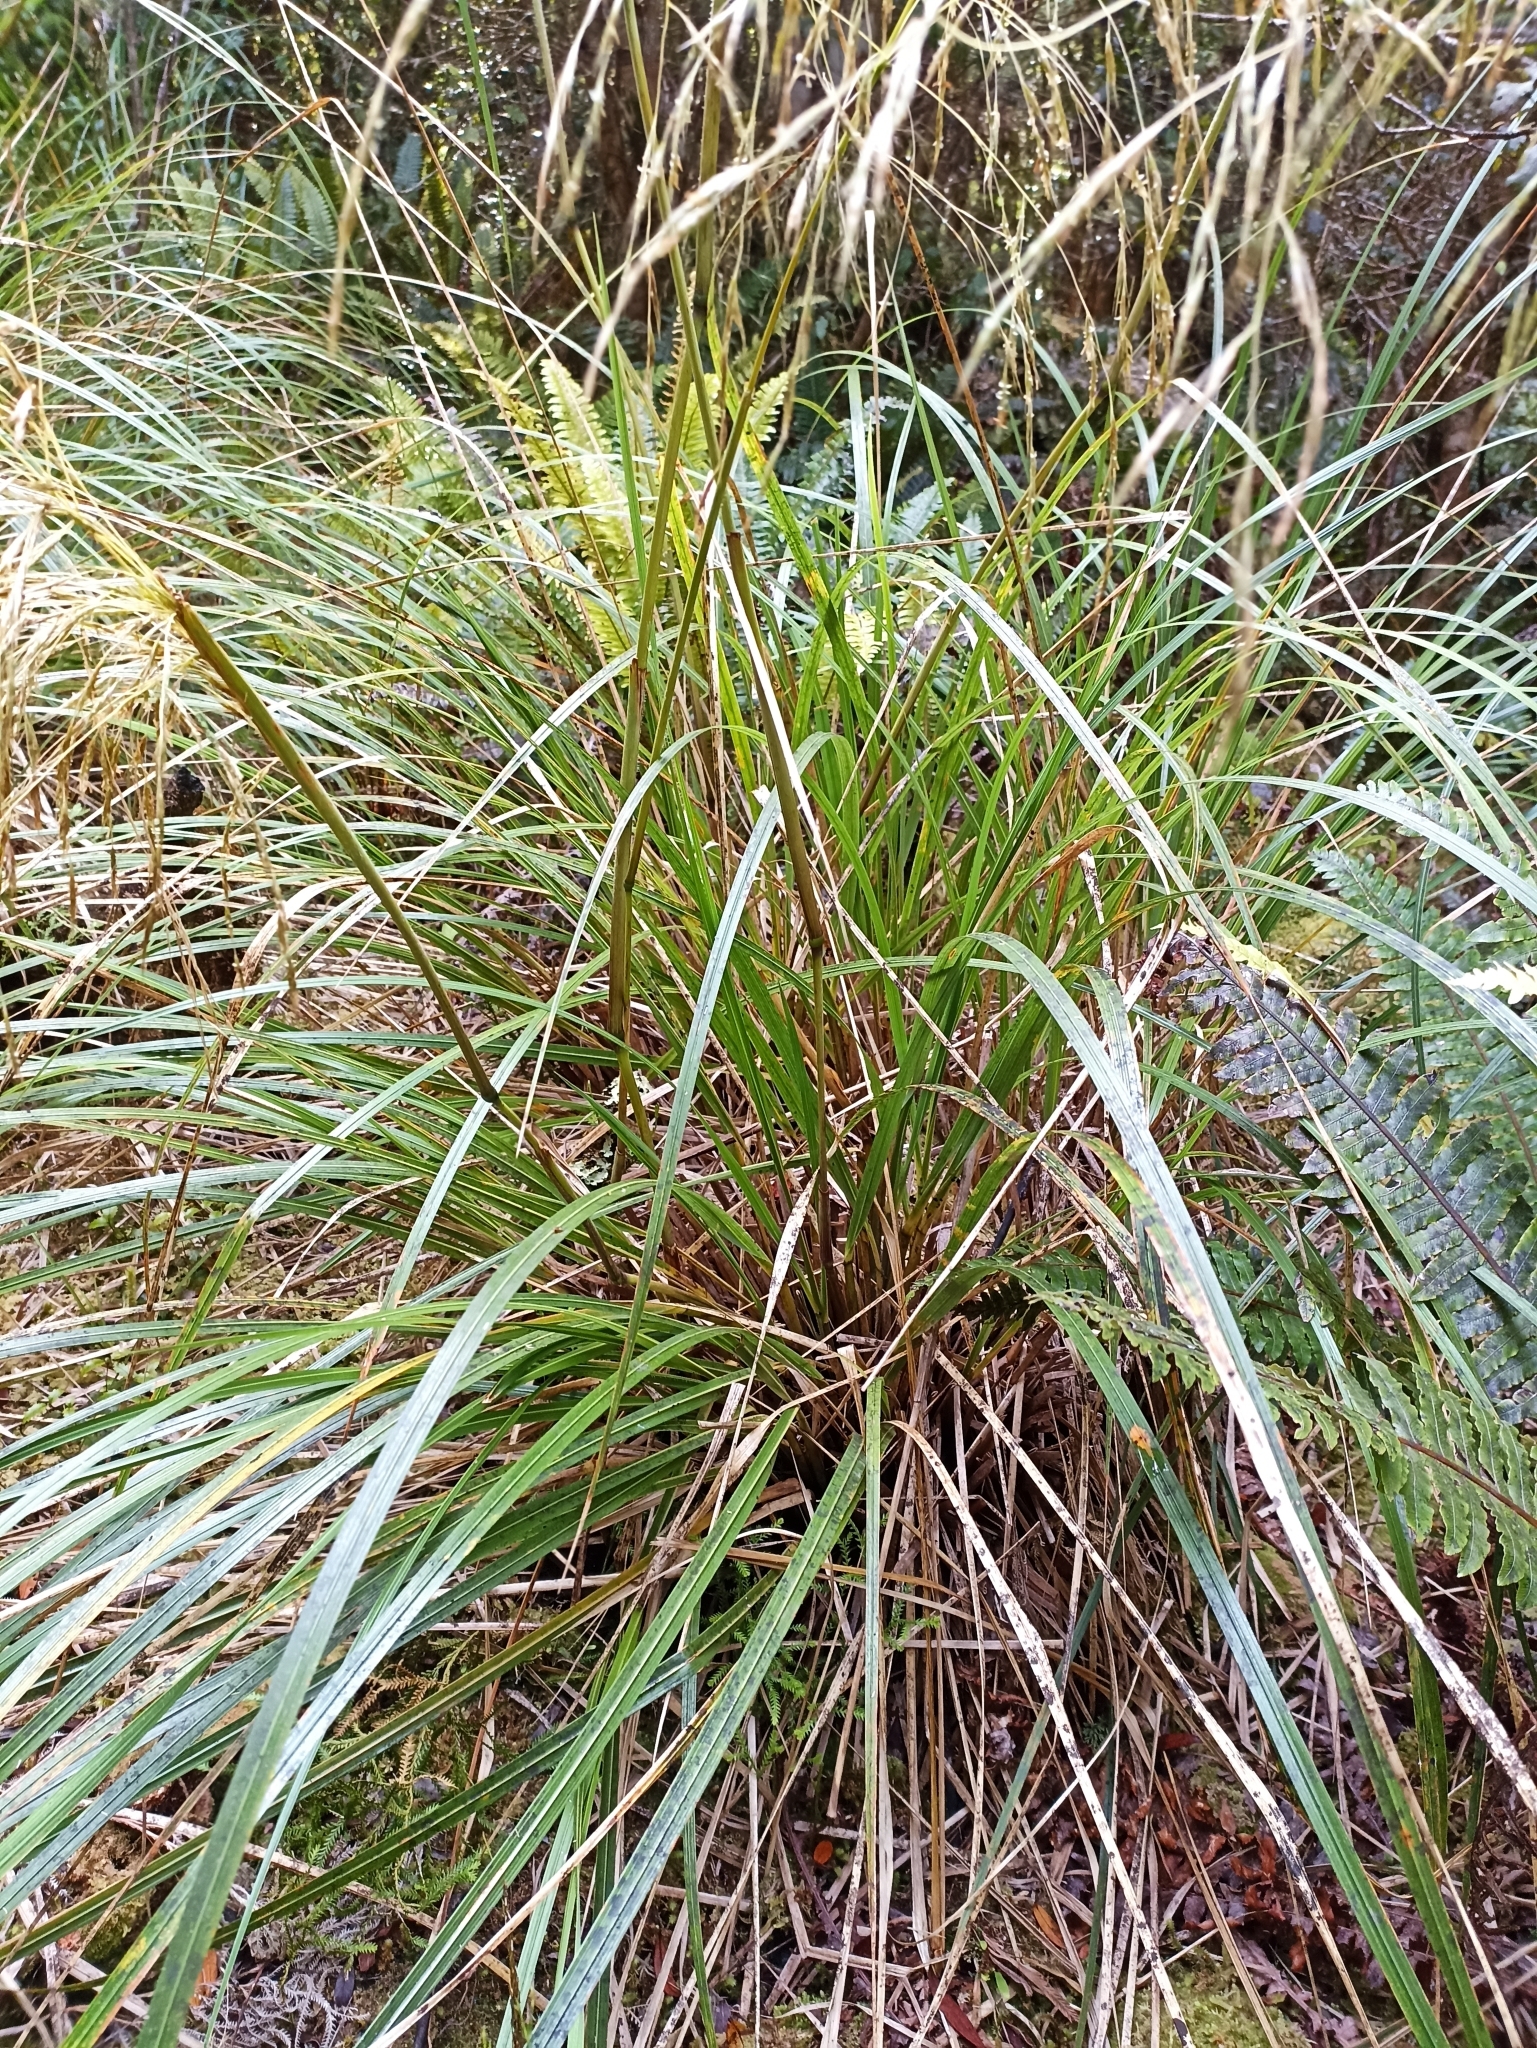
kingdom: Plantae
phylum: Tracheophyta
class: Liliopsida
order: Poales
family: Poaceae
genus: Chionochloa
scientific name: Chionochloa conspicua
